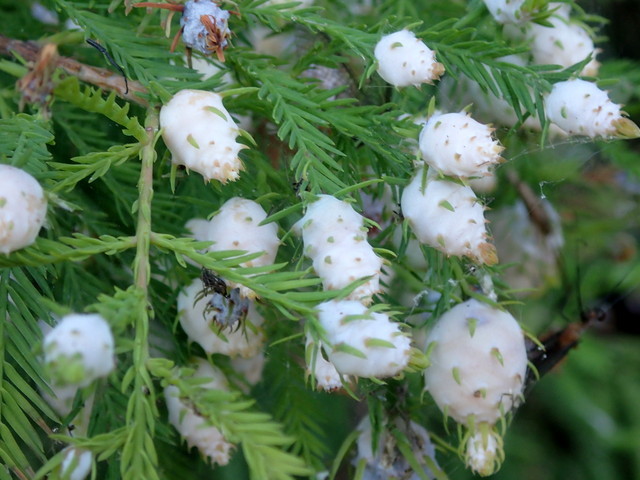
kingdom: Animalia
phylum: Arthropoda
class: Insecta
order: Diptera
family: Cecidomyiidae
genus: Taxodiomyia
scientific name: Taxodiomyia cupressiananassa
